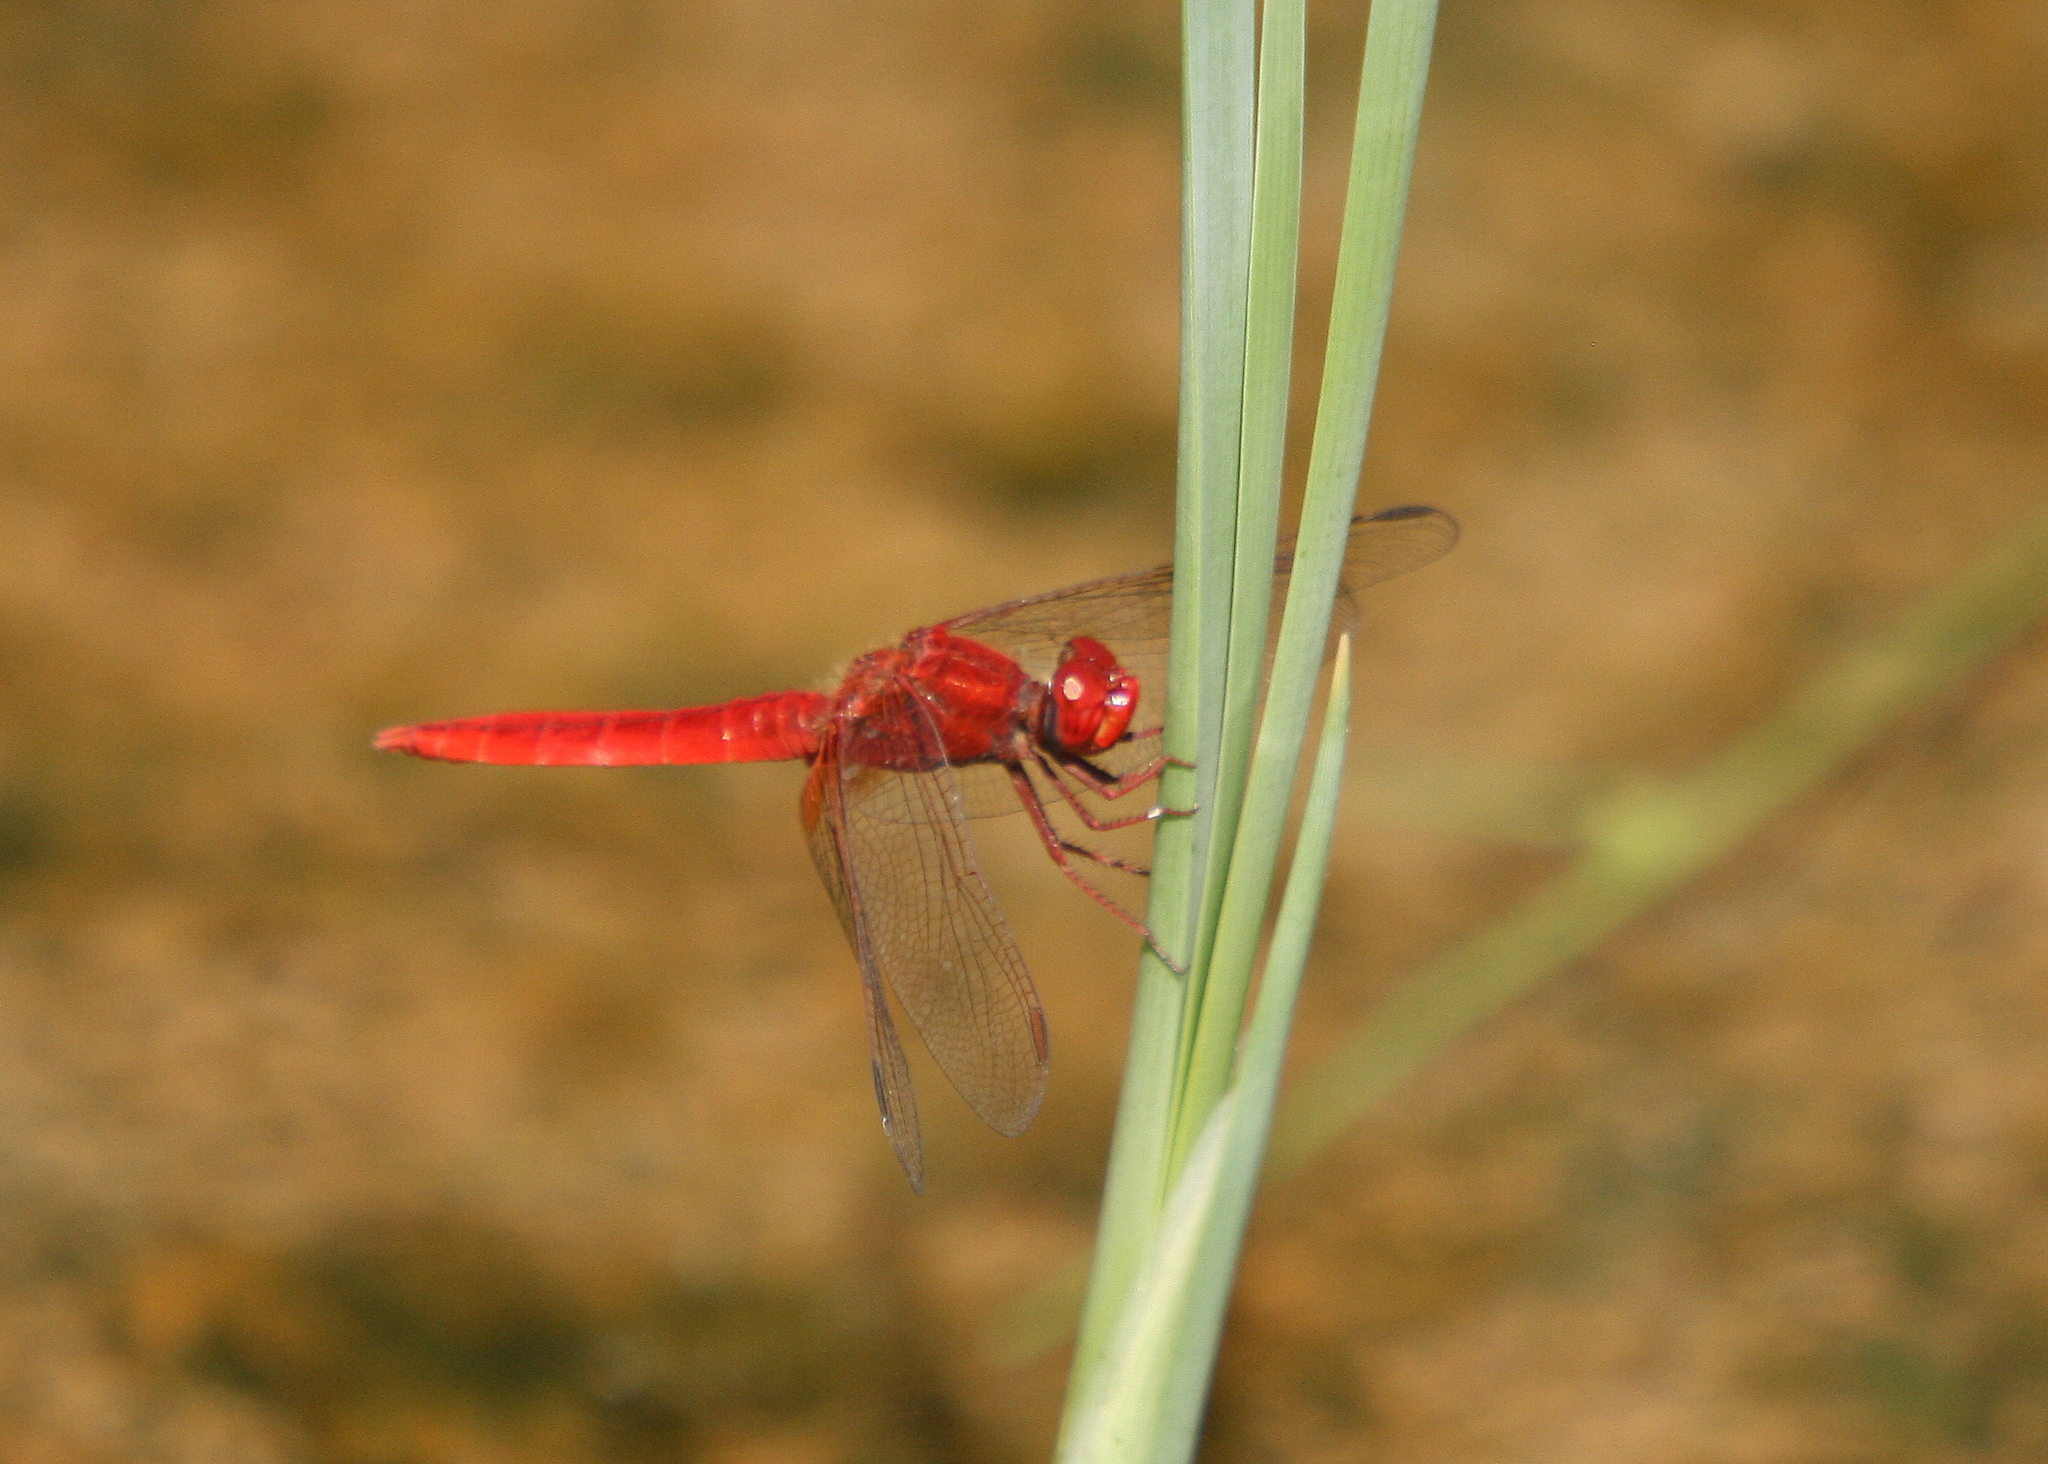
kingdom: Animalia
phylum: Arthropoda
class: Insecta
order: Odonata
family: Libellulidae
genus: Crocothemis
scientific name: Crocothemis erythraea
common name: Scarlet dragonfly
